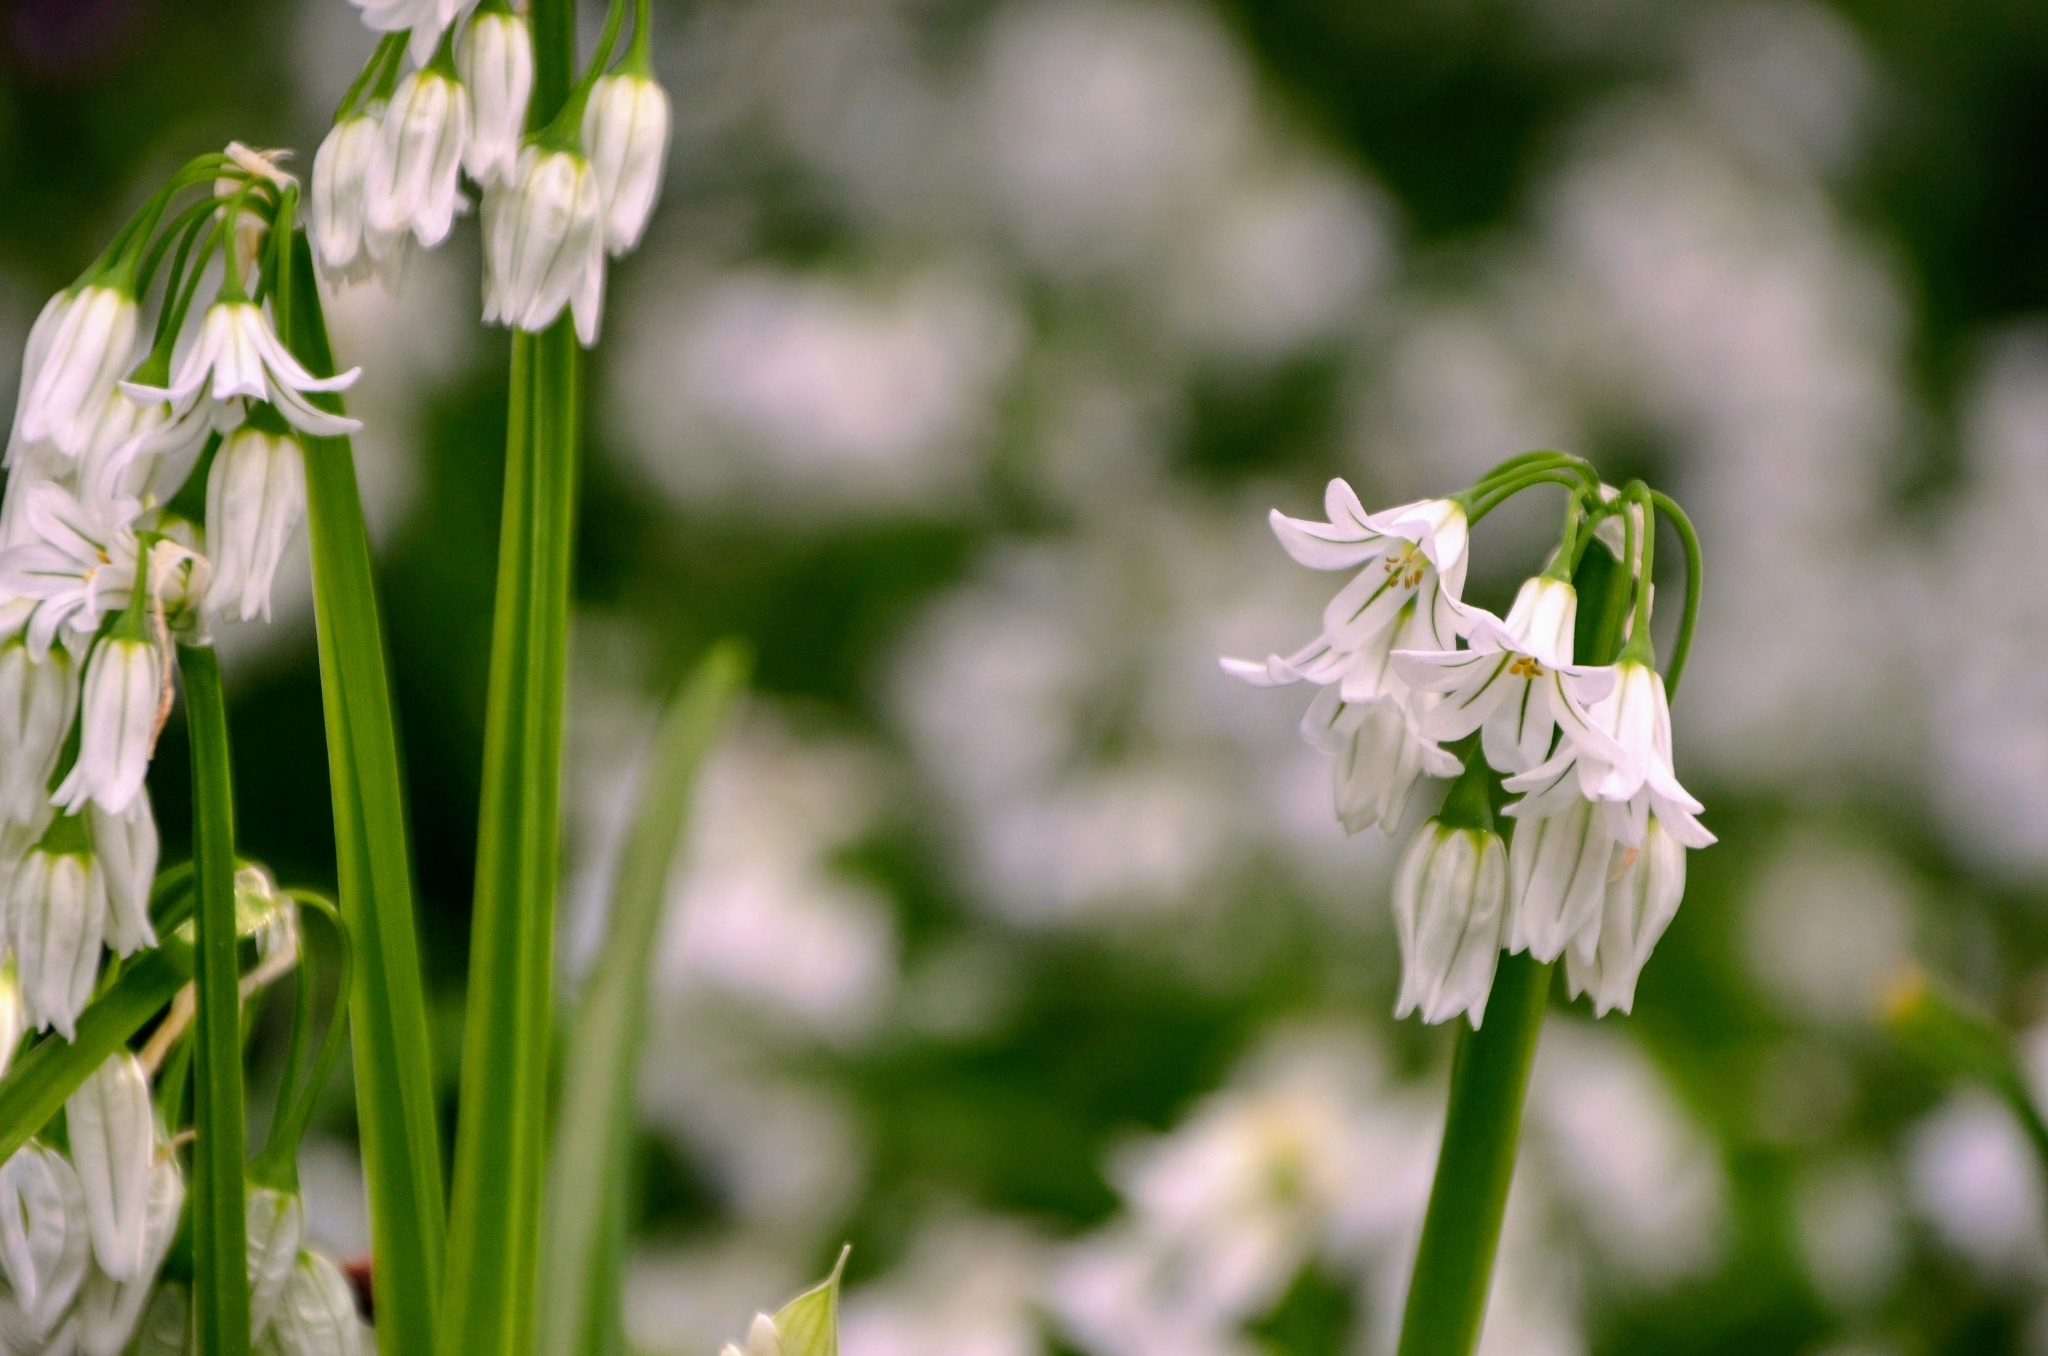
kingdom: Plantae
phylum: Tracheophyta
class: Liliopsida
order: Asparagales
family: Amaryllidaceae
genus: Allium
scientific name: Allium triquetrum
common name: Three-cornered garlic
